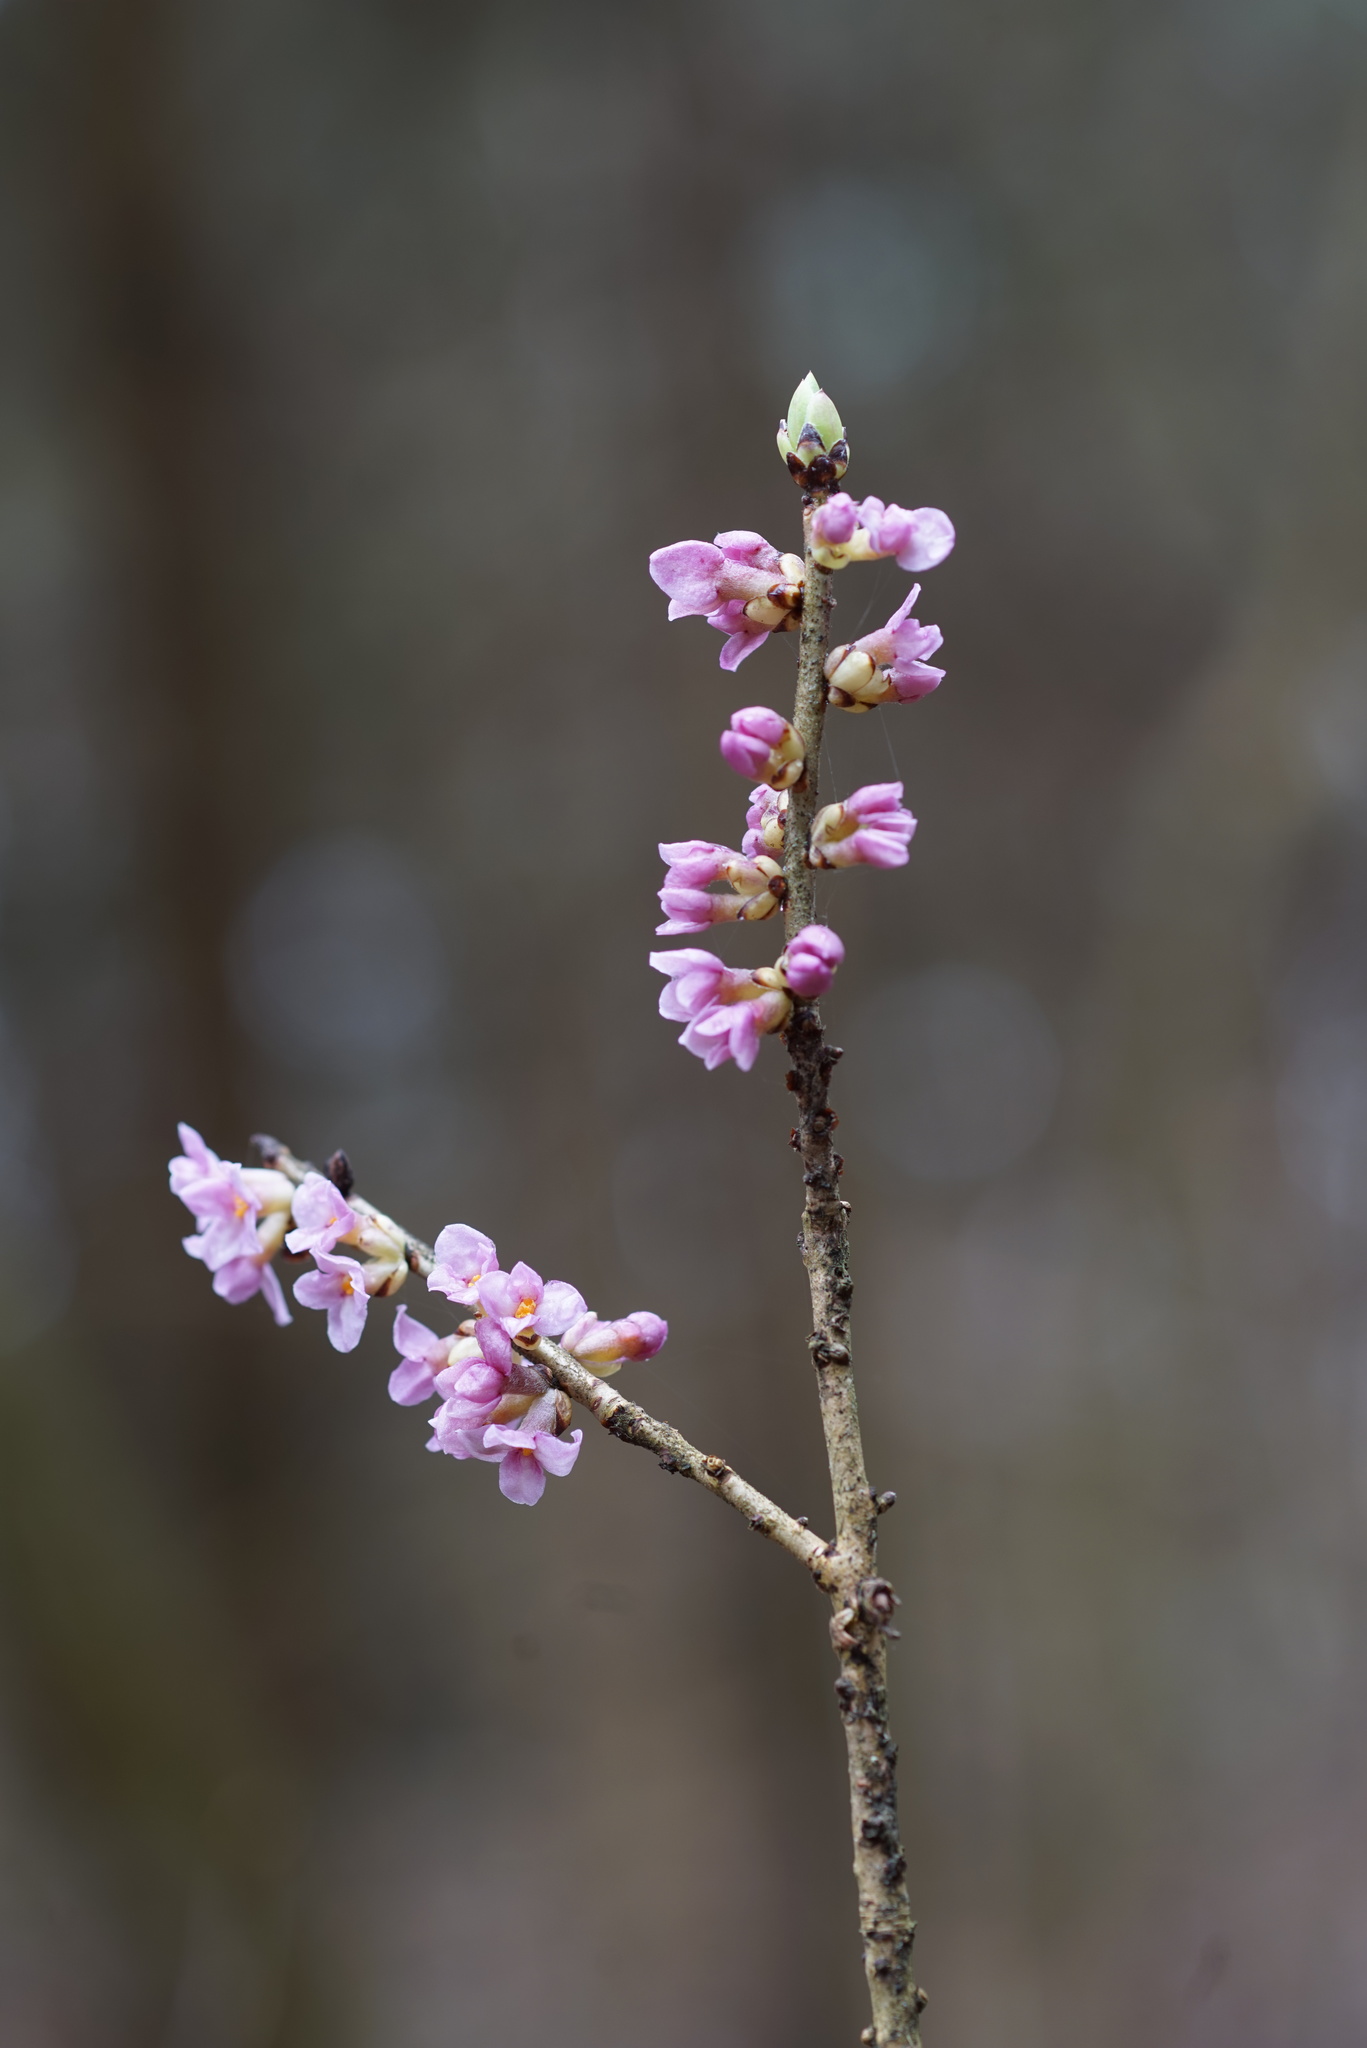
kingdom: Plantae
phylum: Tracheophyta
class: Magnoliopsida
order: Malvales
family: Thymelaeaceae
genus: Daphne
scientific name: Daphne mezereum
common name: Mezereon
